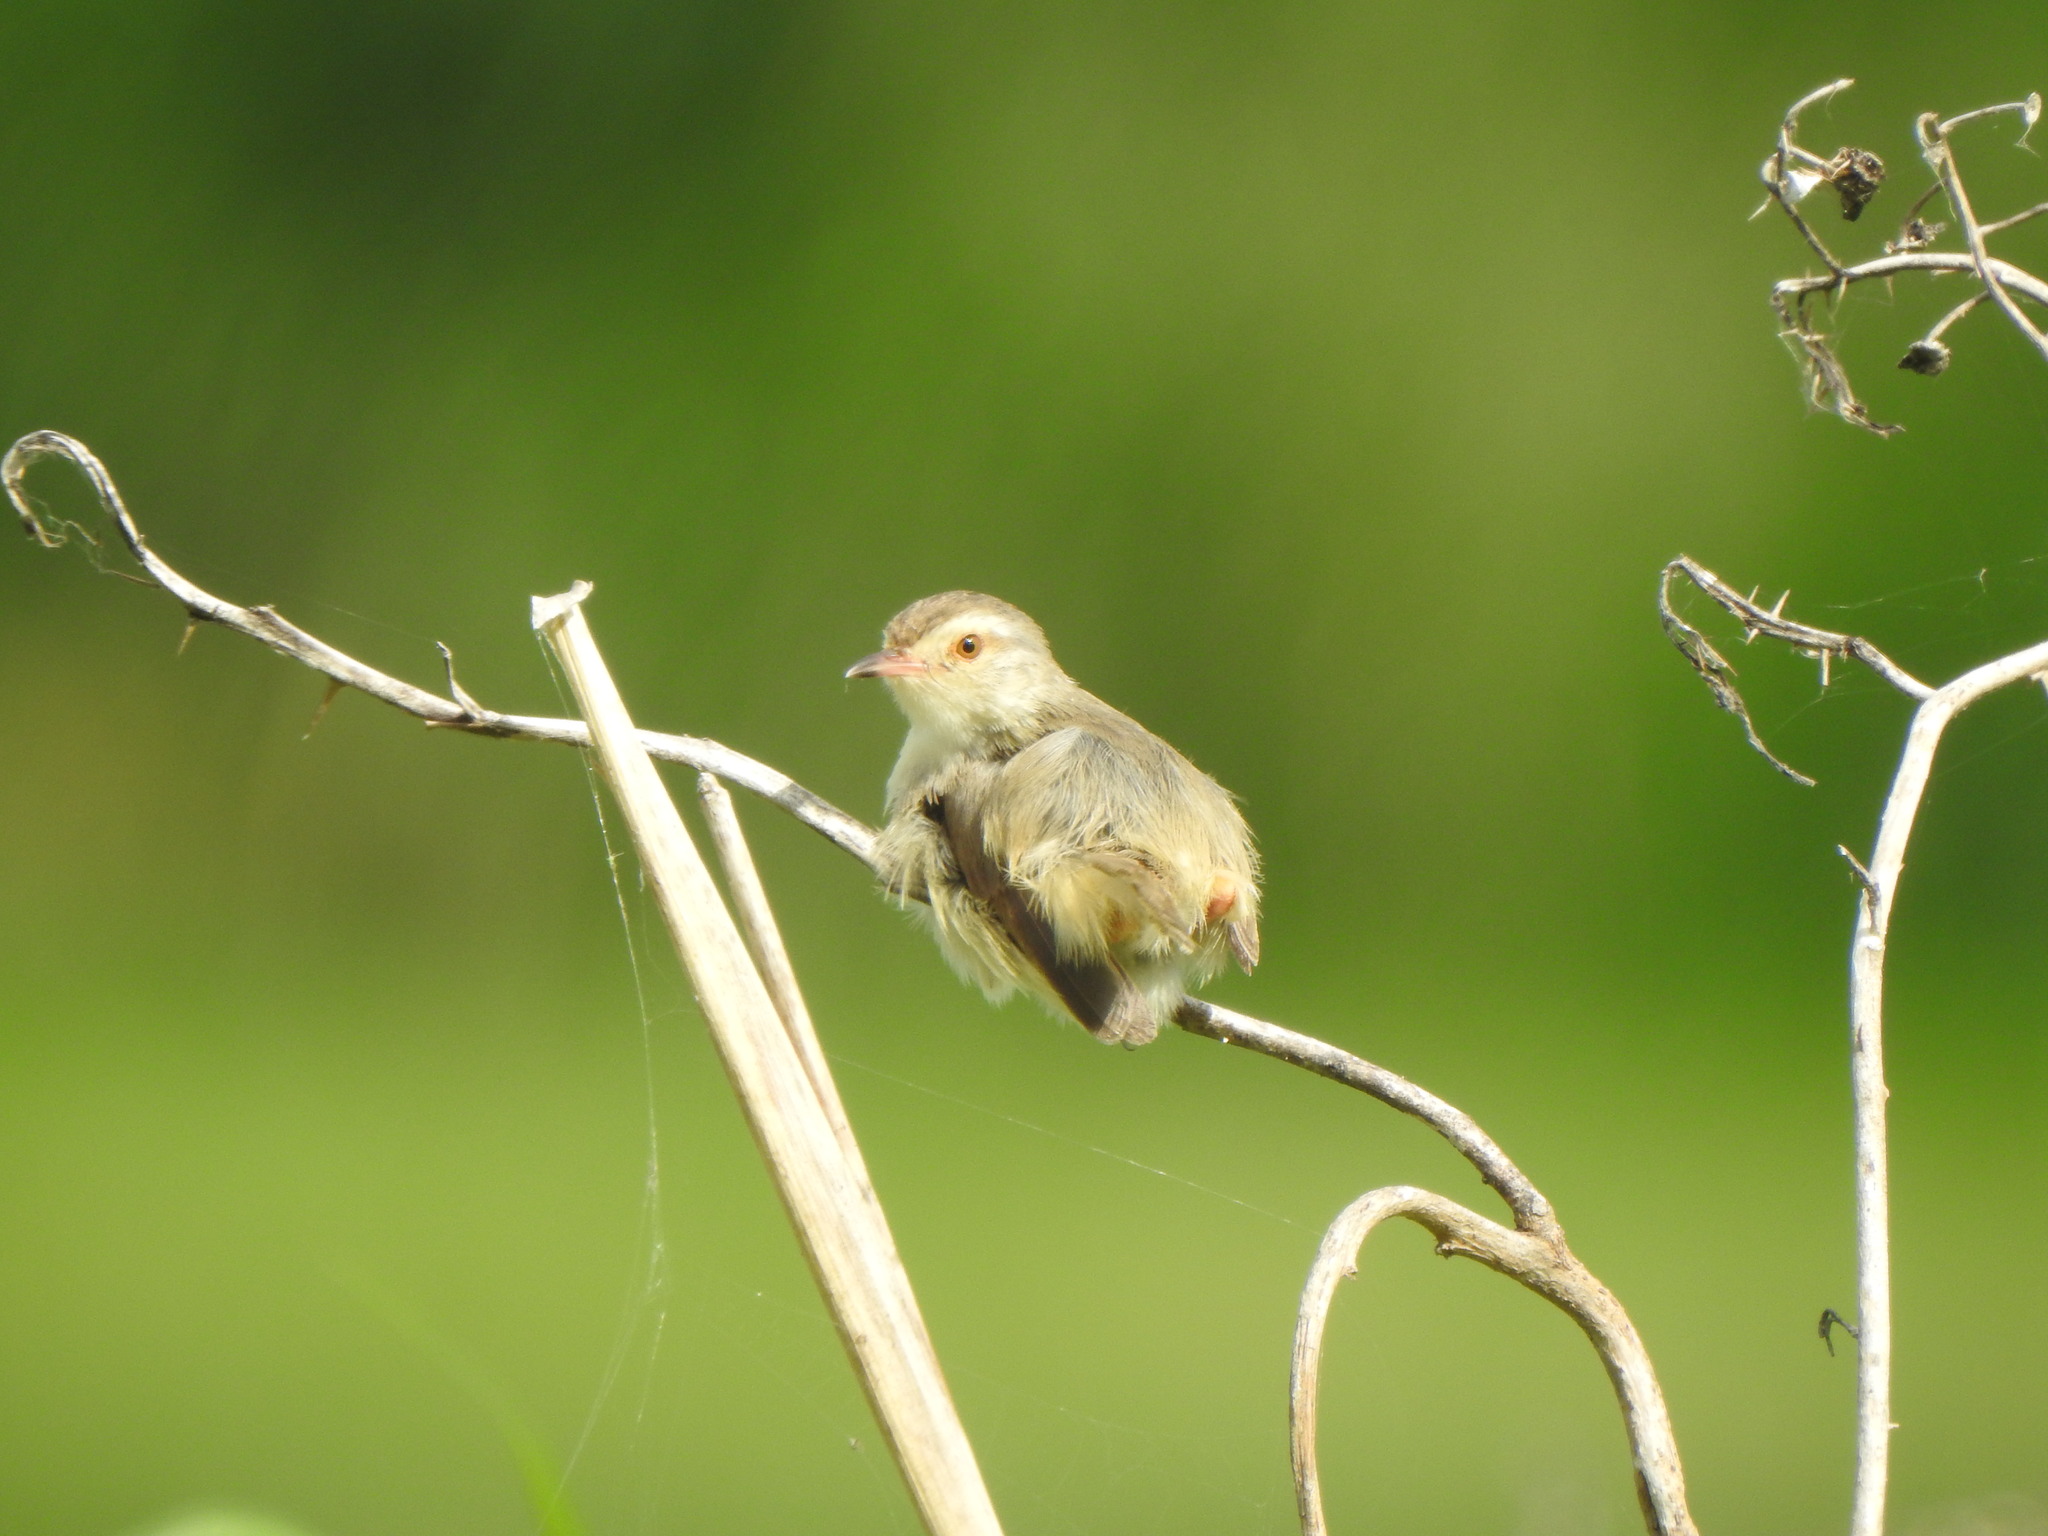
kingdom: Animalia
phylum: Chordata
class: Aves
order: Passeriformes
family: Cisticolidae
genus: Prinia
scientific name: Prinia inornata
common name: Plain prinia
